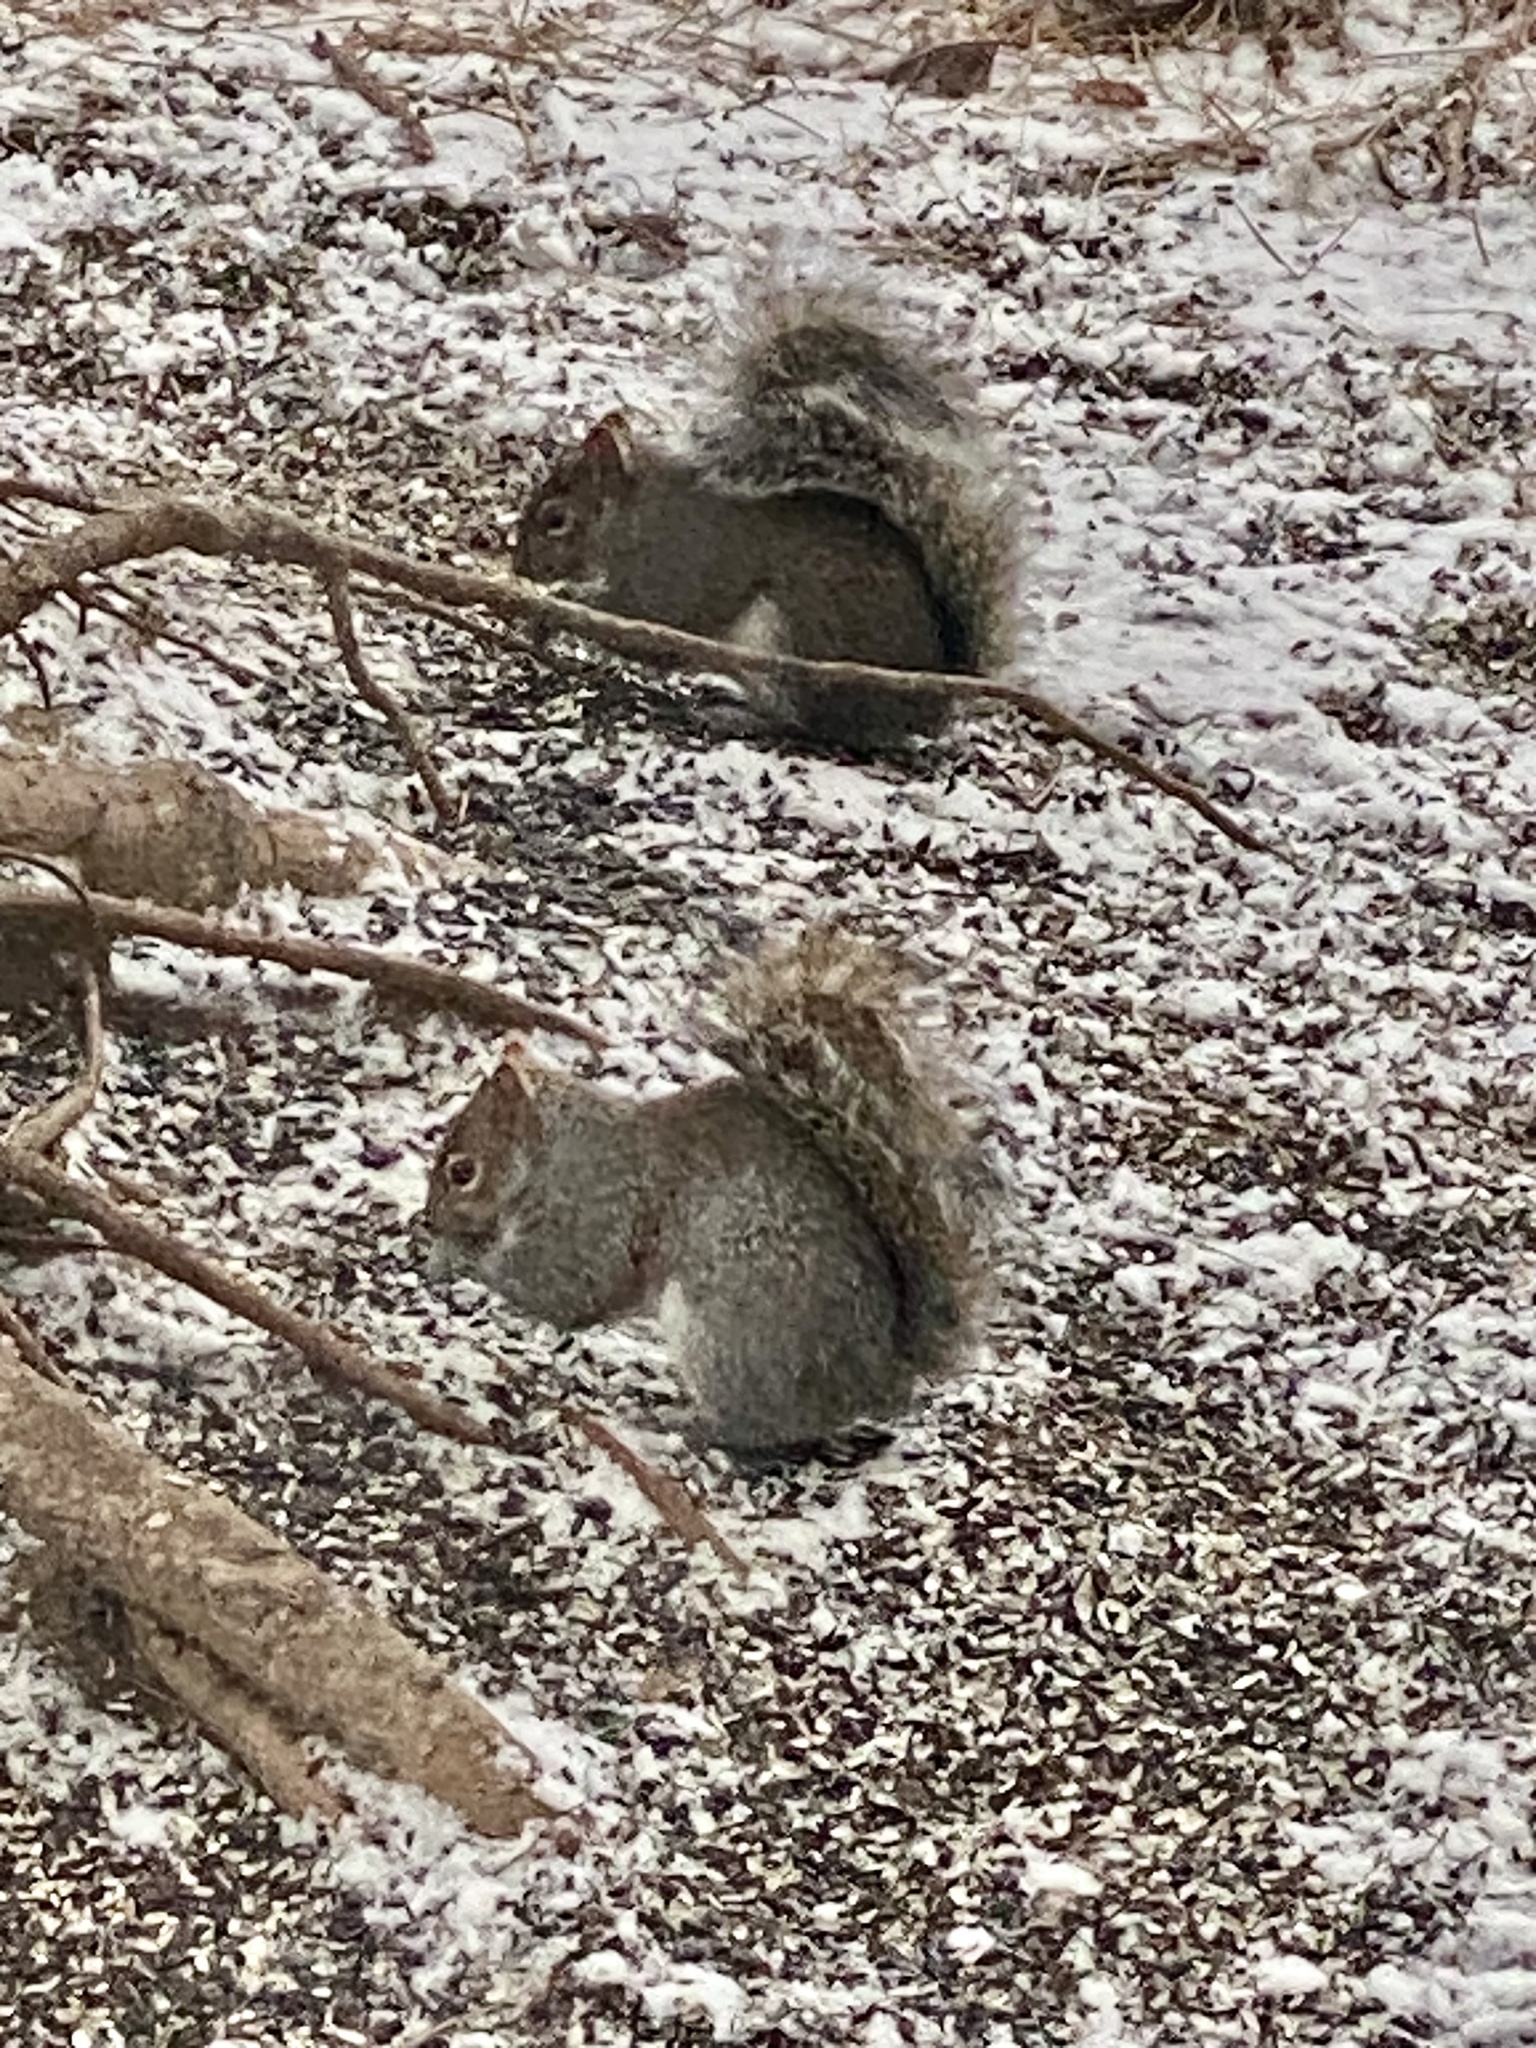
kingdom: Animalia
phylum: Chordata
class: Mammalia
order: Rodentia
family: Sciuridae
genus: Sciurus
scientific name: Sciurus carolinensis
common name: Eastern gray squirrel
